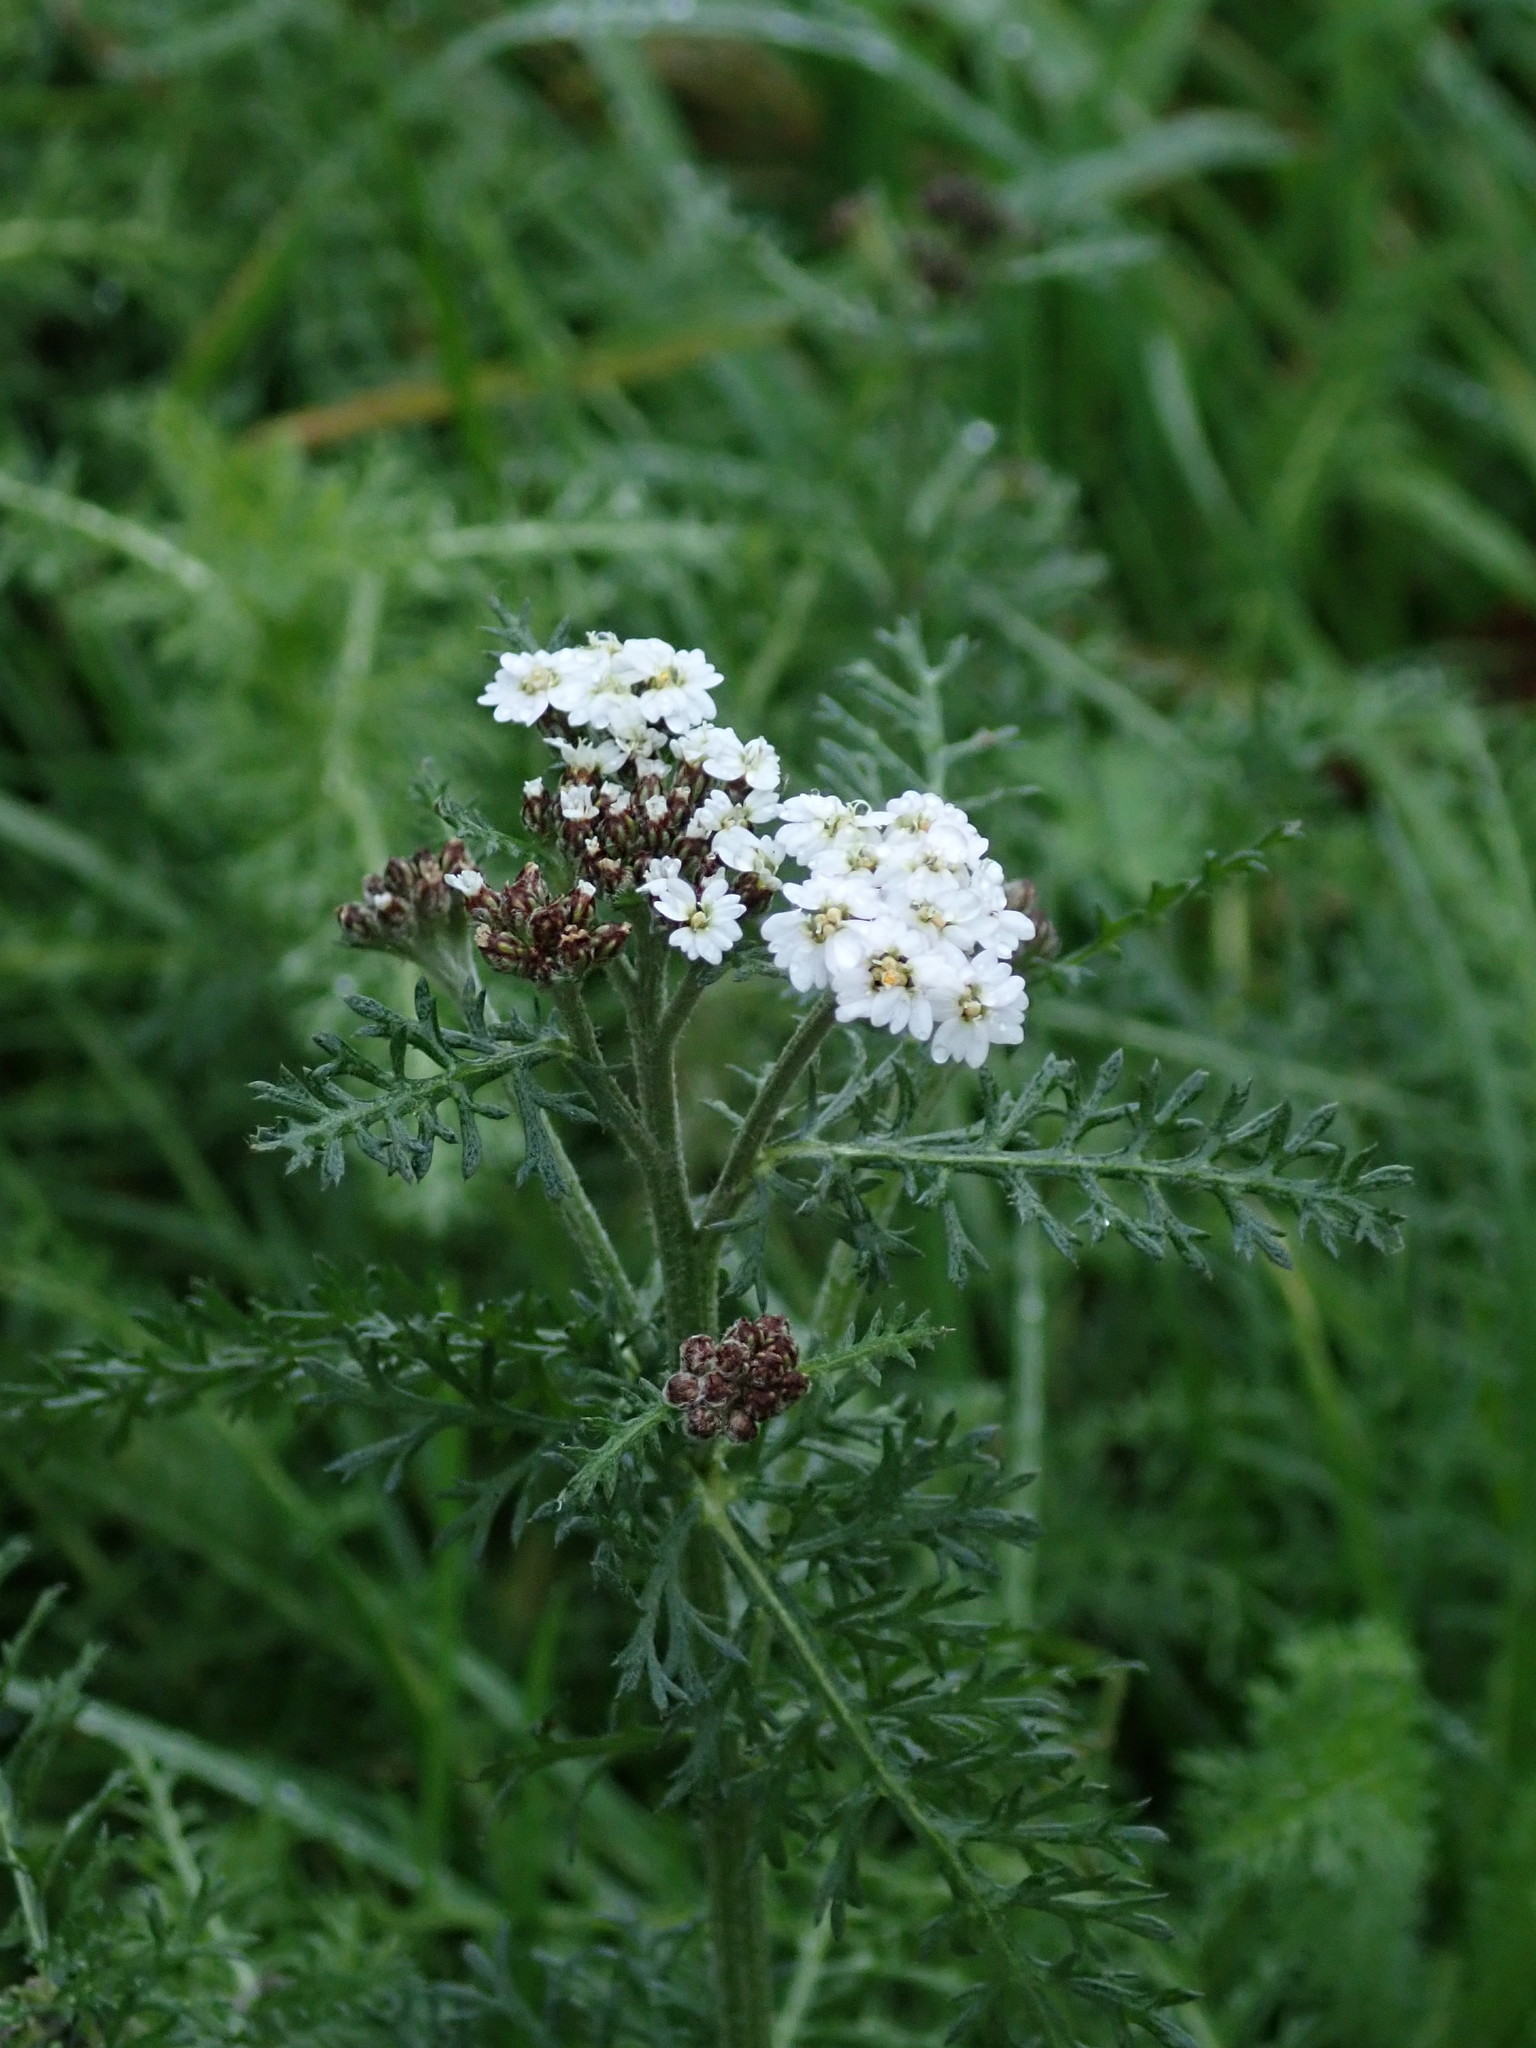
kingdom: Plantae
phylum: Tracheophyta
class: Magnoliopsida
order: Asterales
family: Asteraceae
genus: Achillea
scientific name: Achillea millefolium
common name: Yarrow
